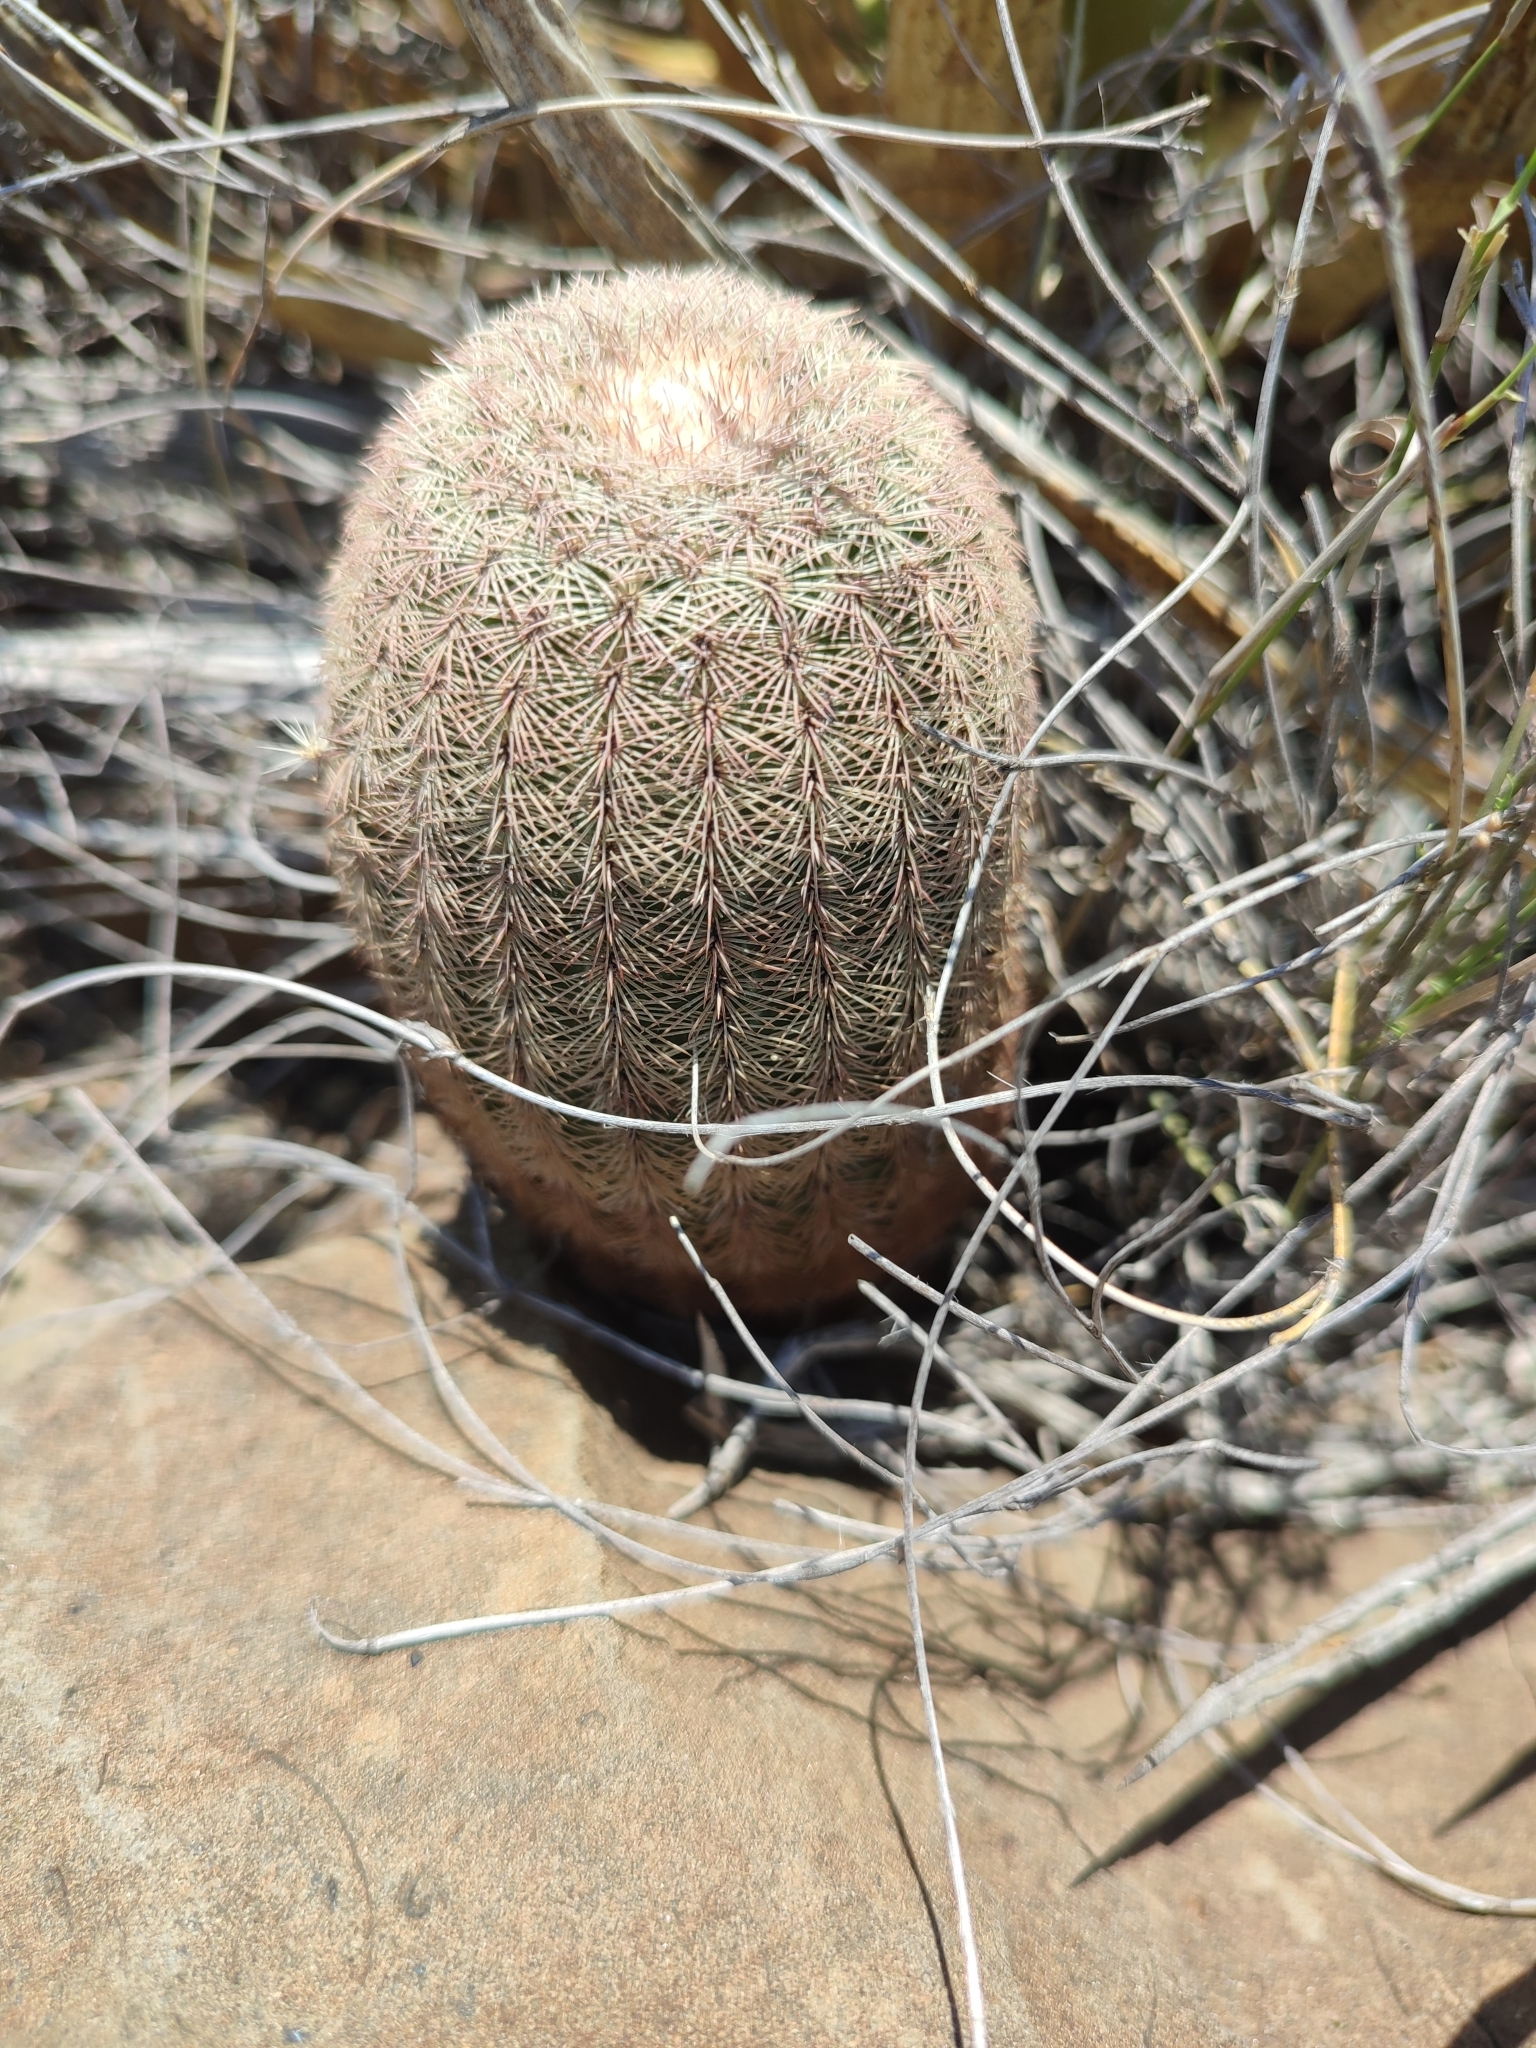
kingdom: Plantae
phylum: Tracheophyta
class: Magnoliopsida
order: Caryophyllales
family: Cactaceae
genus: Echinocereus
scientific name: Echinocereus pectinatus
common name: Rainbow cactus
